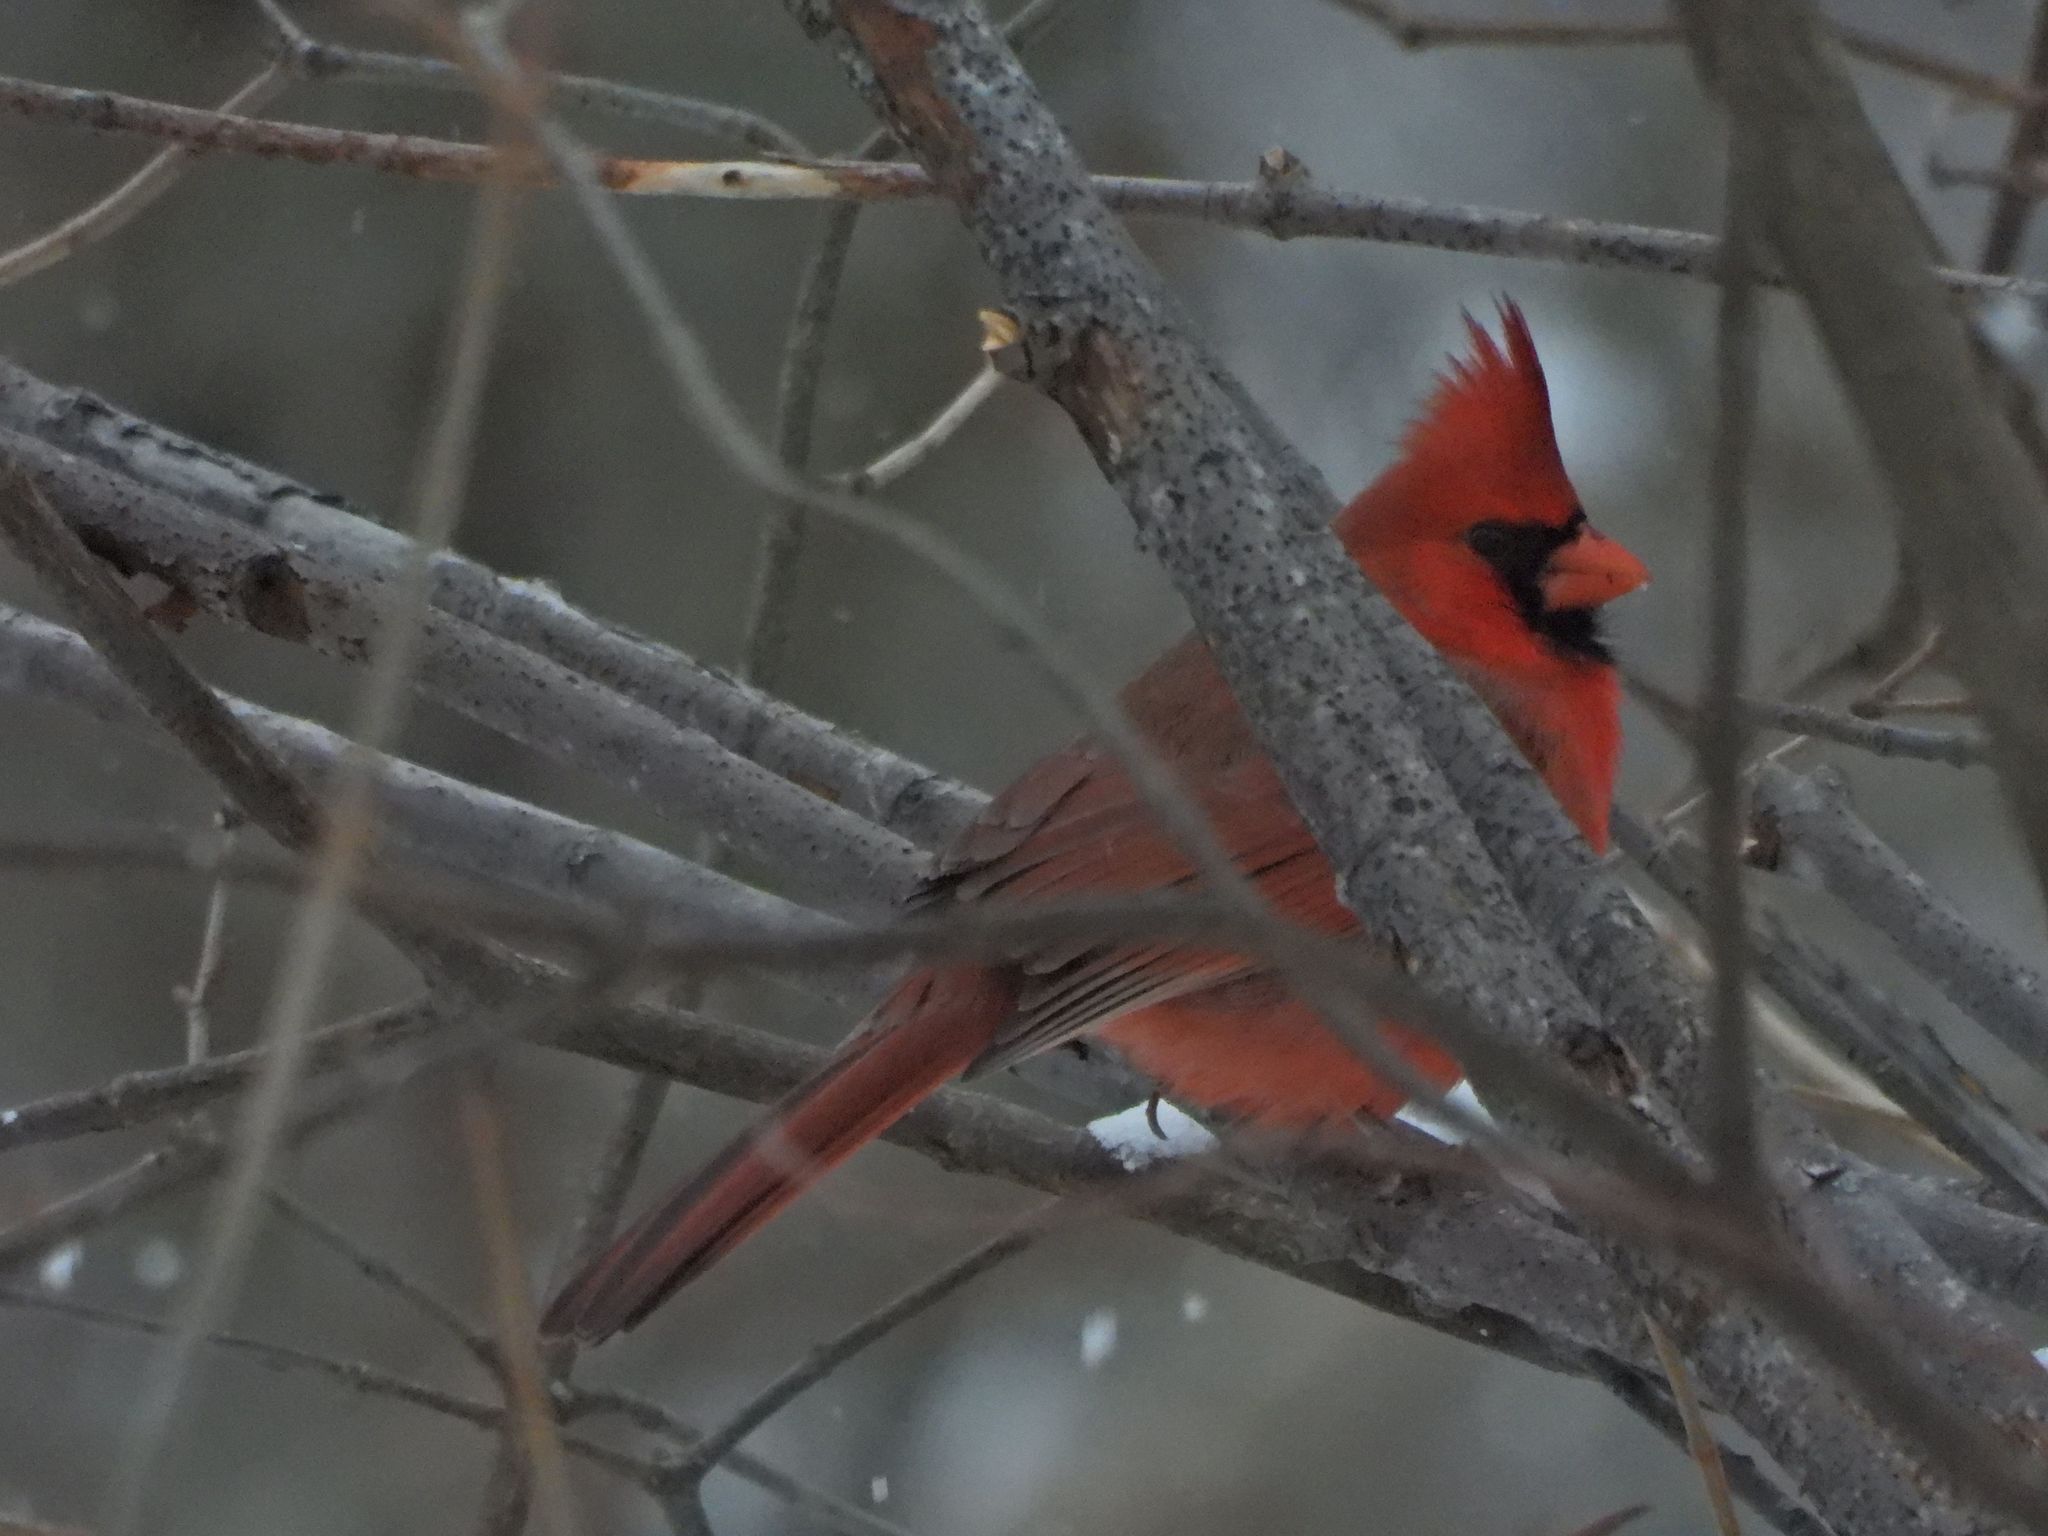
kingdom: Animalia
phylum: Chordata
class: Aves
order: Passeriformes
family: Cardinalidae
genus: Cardinalis
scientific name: Cardinalis cardinalis
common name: Northern cardinal
